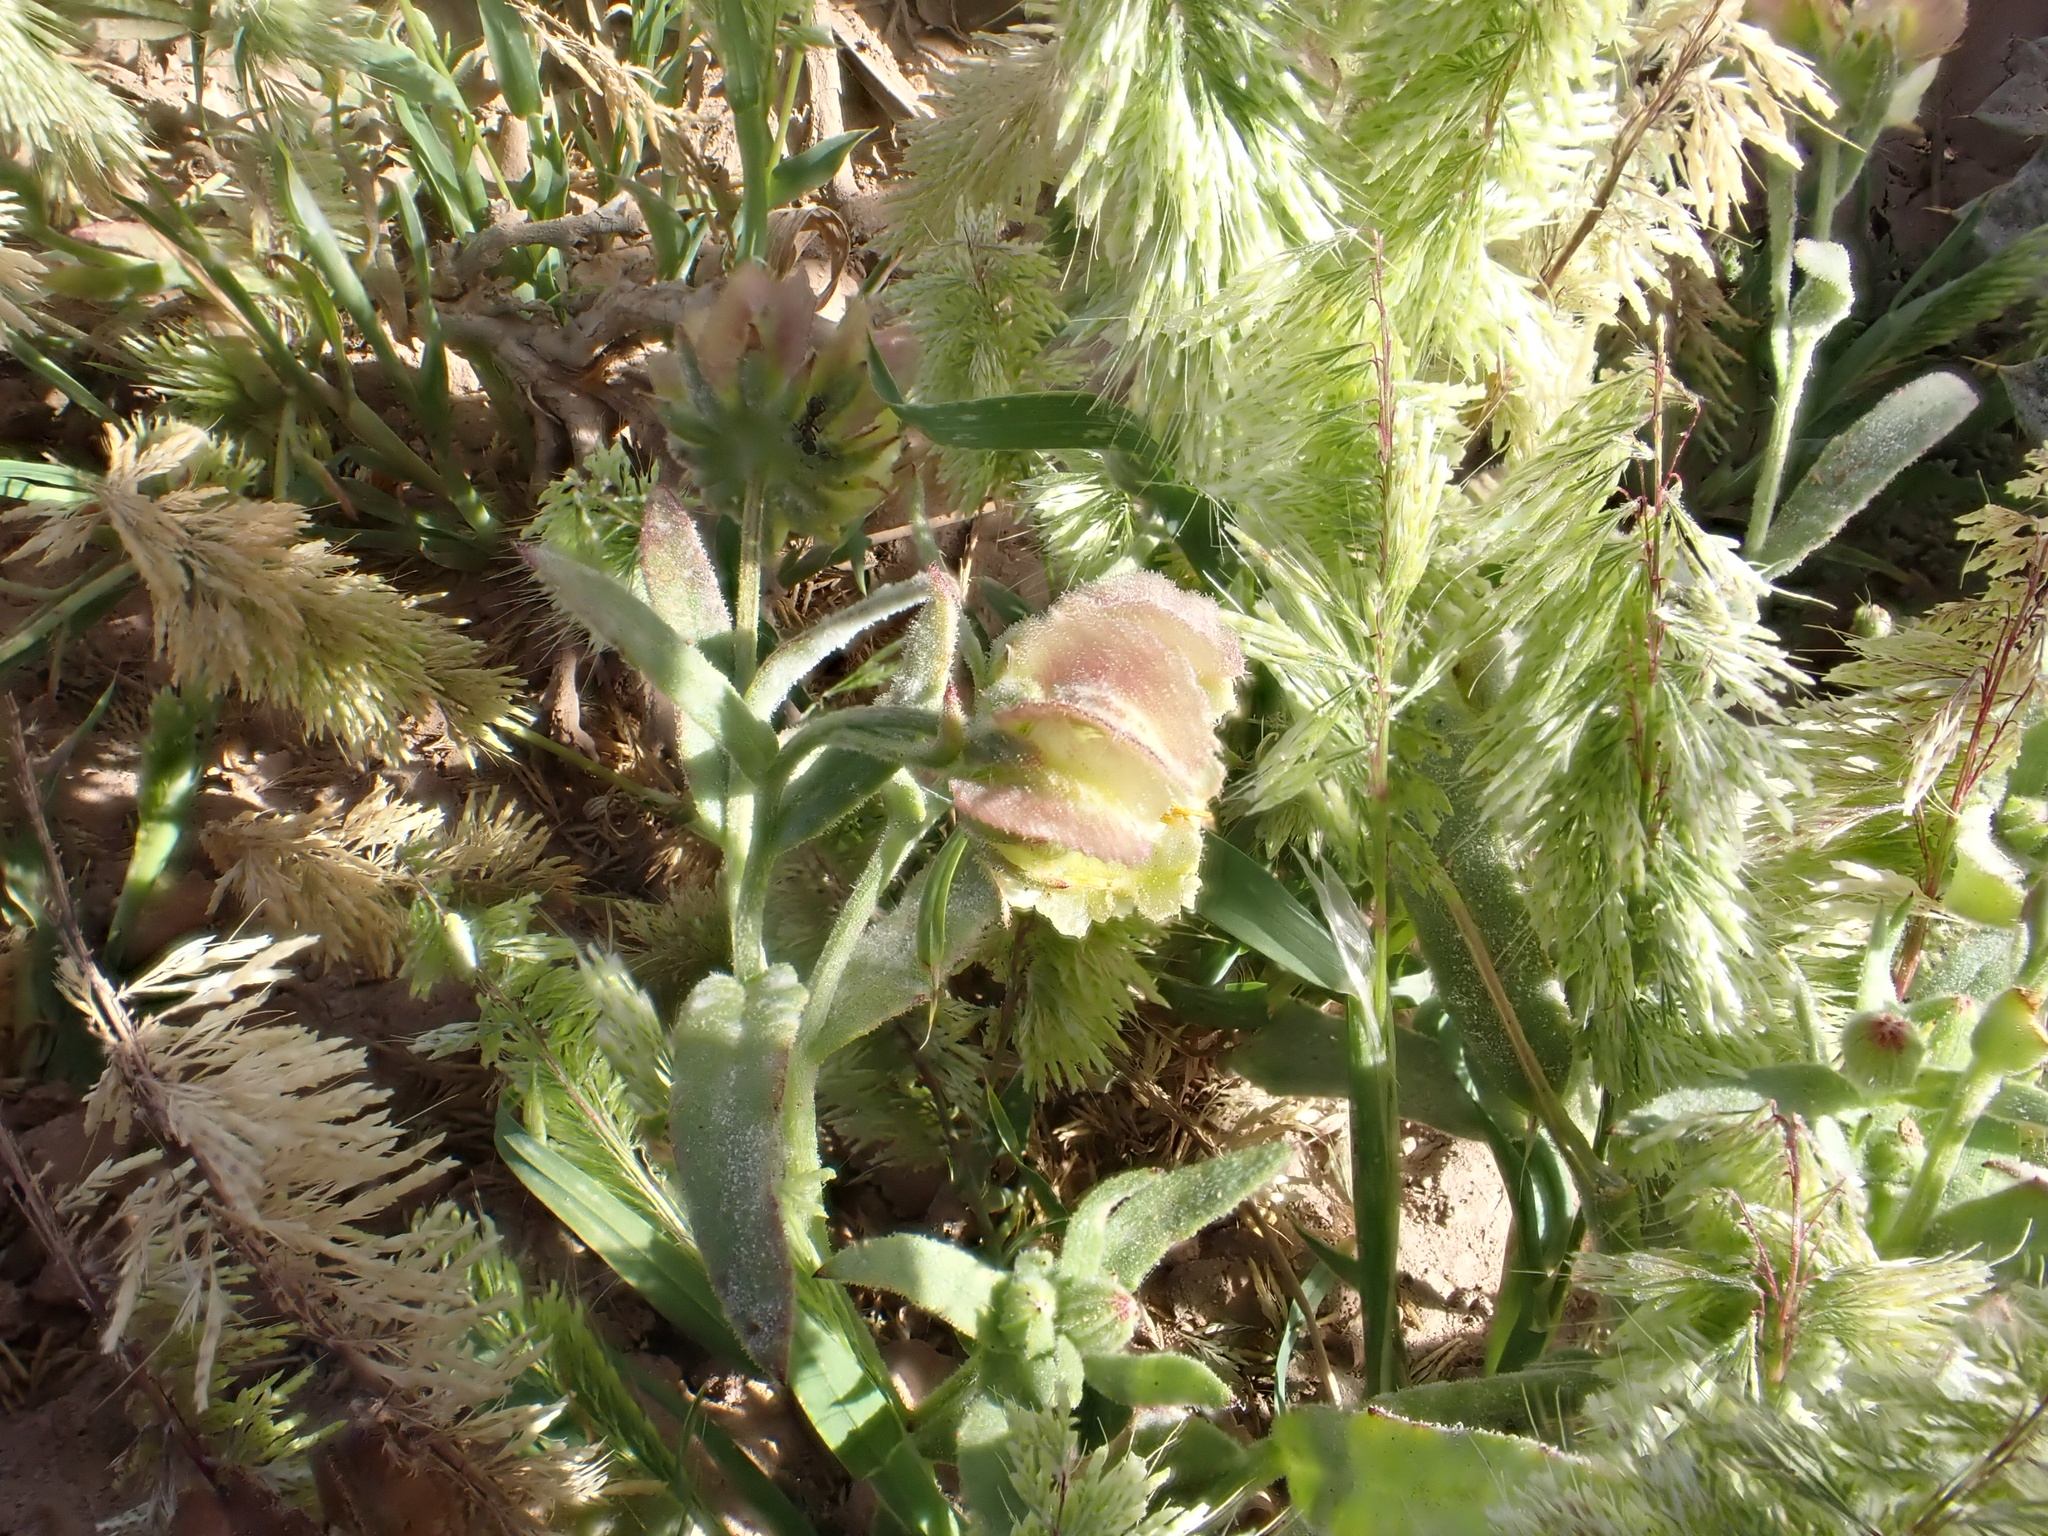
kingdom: Plantae
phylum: Tracheophyta
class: Magnoliopsida
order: Asterales
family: Asteraceae
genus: Calendula
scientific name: Calendula tripterocarpa
